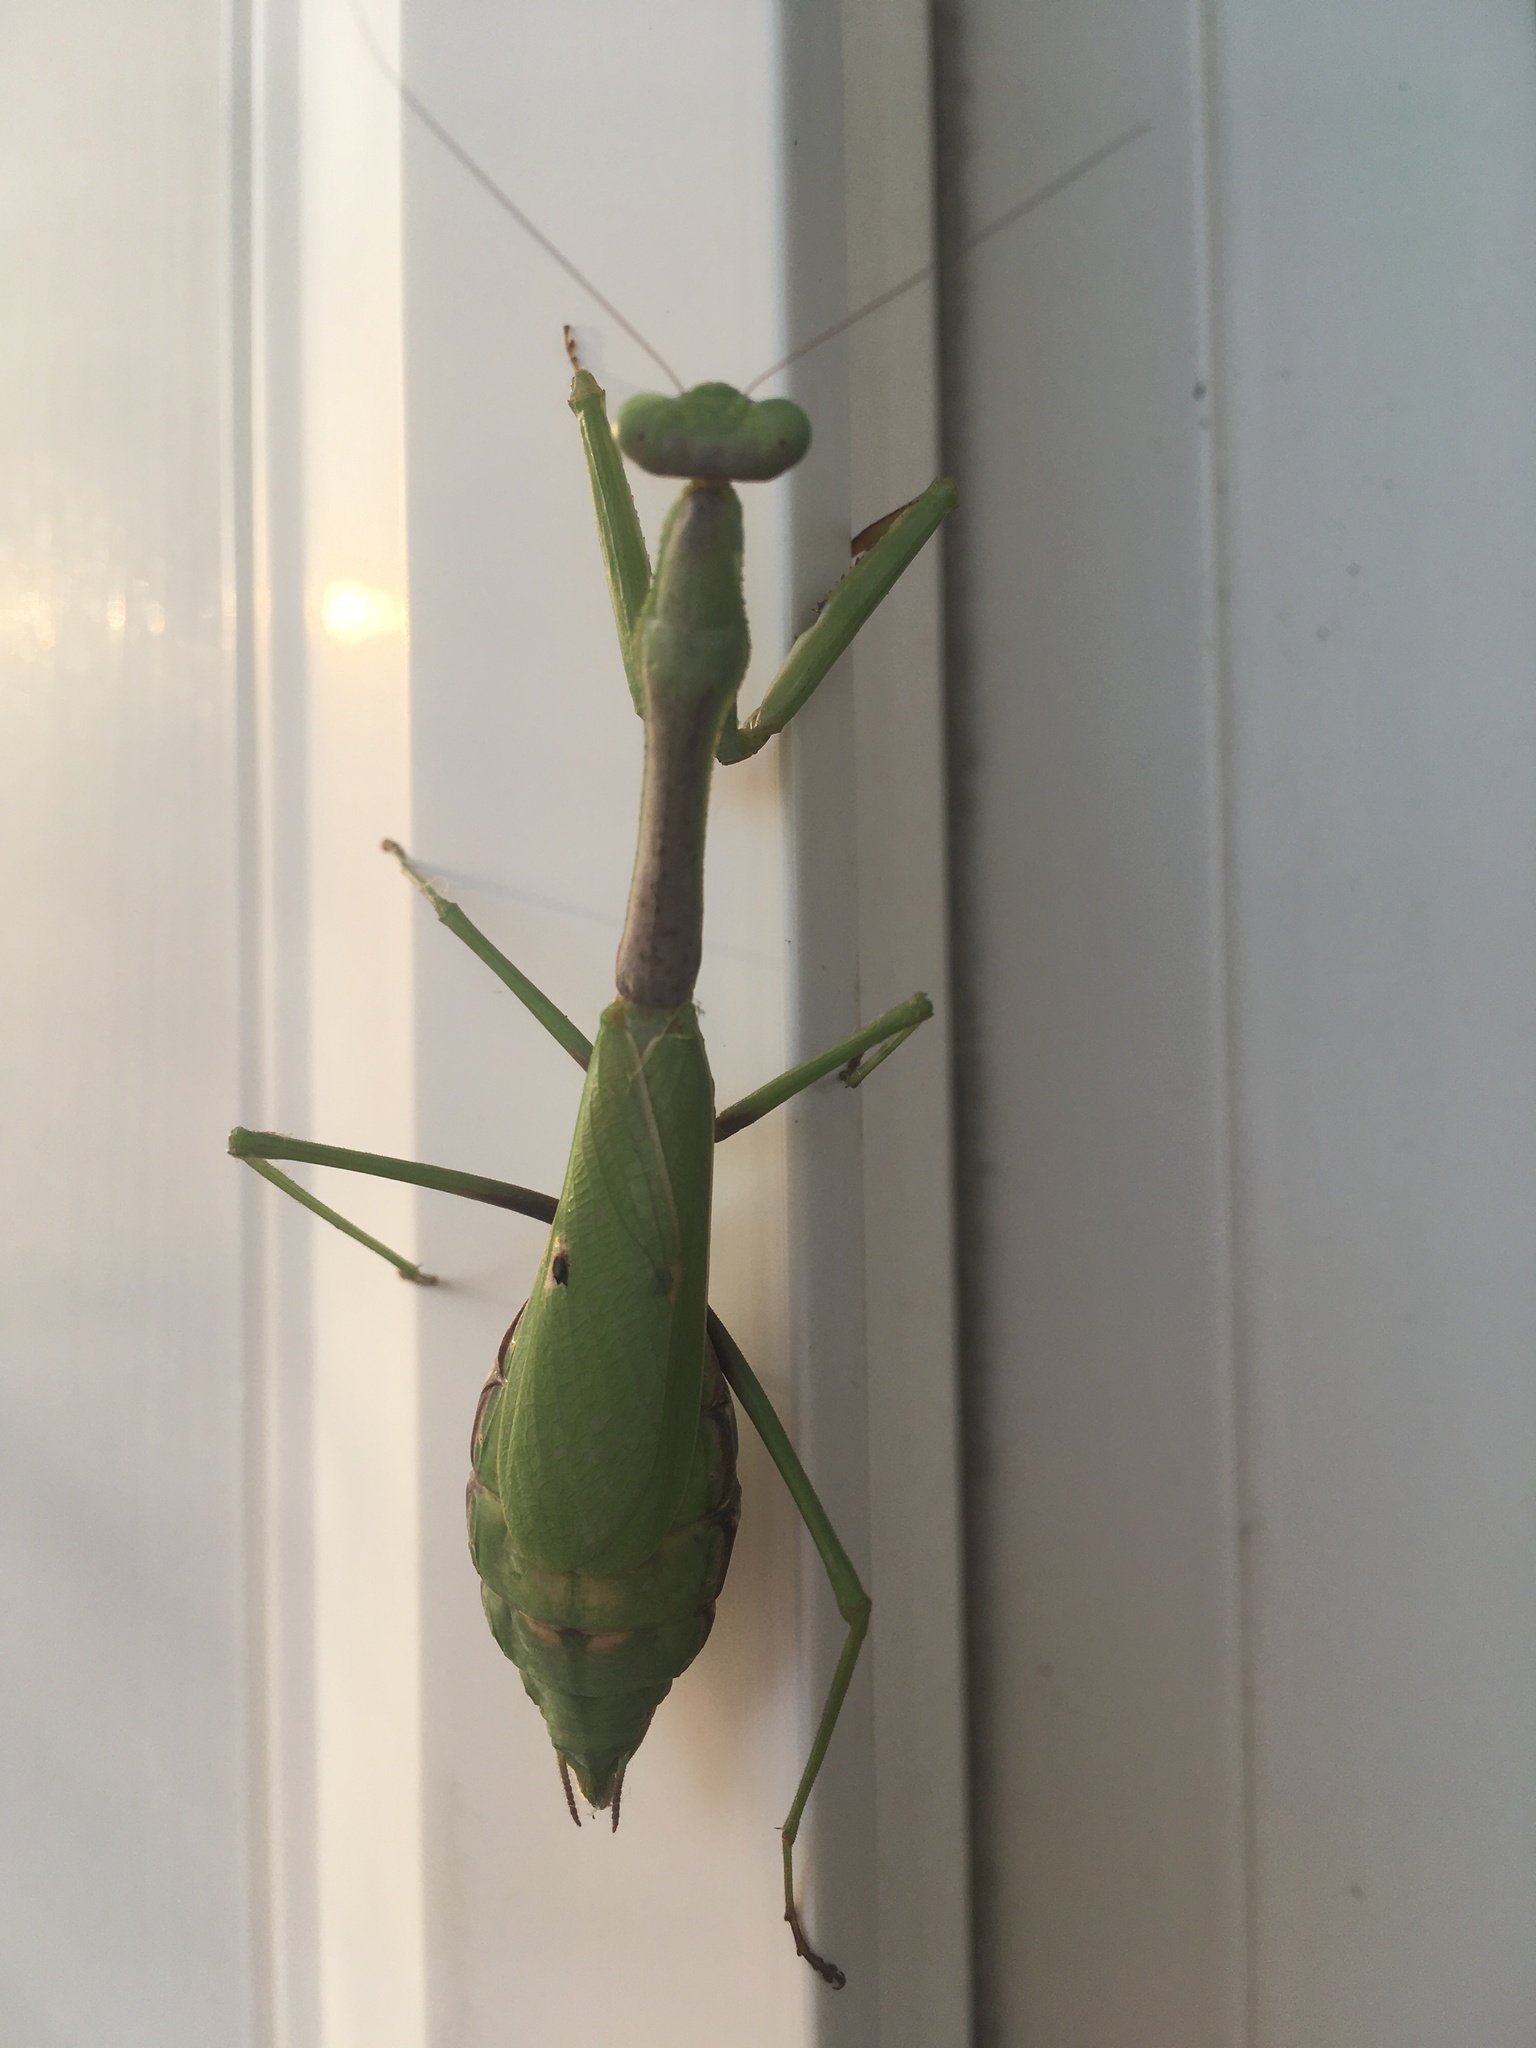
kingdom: Animalia
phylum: Arthropoda
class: Insecta
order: Mantodea
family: Mantidae
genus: Stagmomantis
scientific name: Stagmomantis carolina
